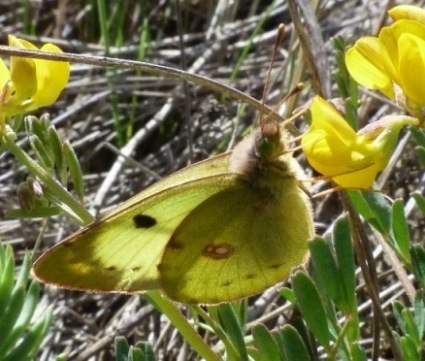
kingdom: Animalia
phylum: Arthropoda
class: Insecta
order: Lepidoptera
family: Pieridae
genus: Colias
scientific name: Colias alfacariensis
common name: Berger's clouded yellow
